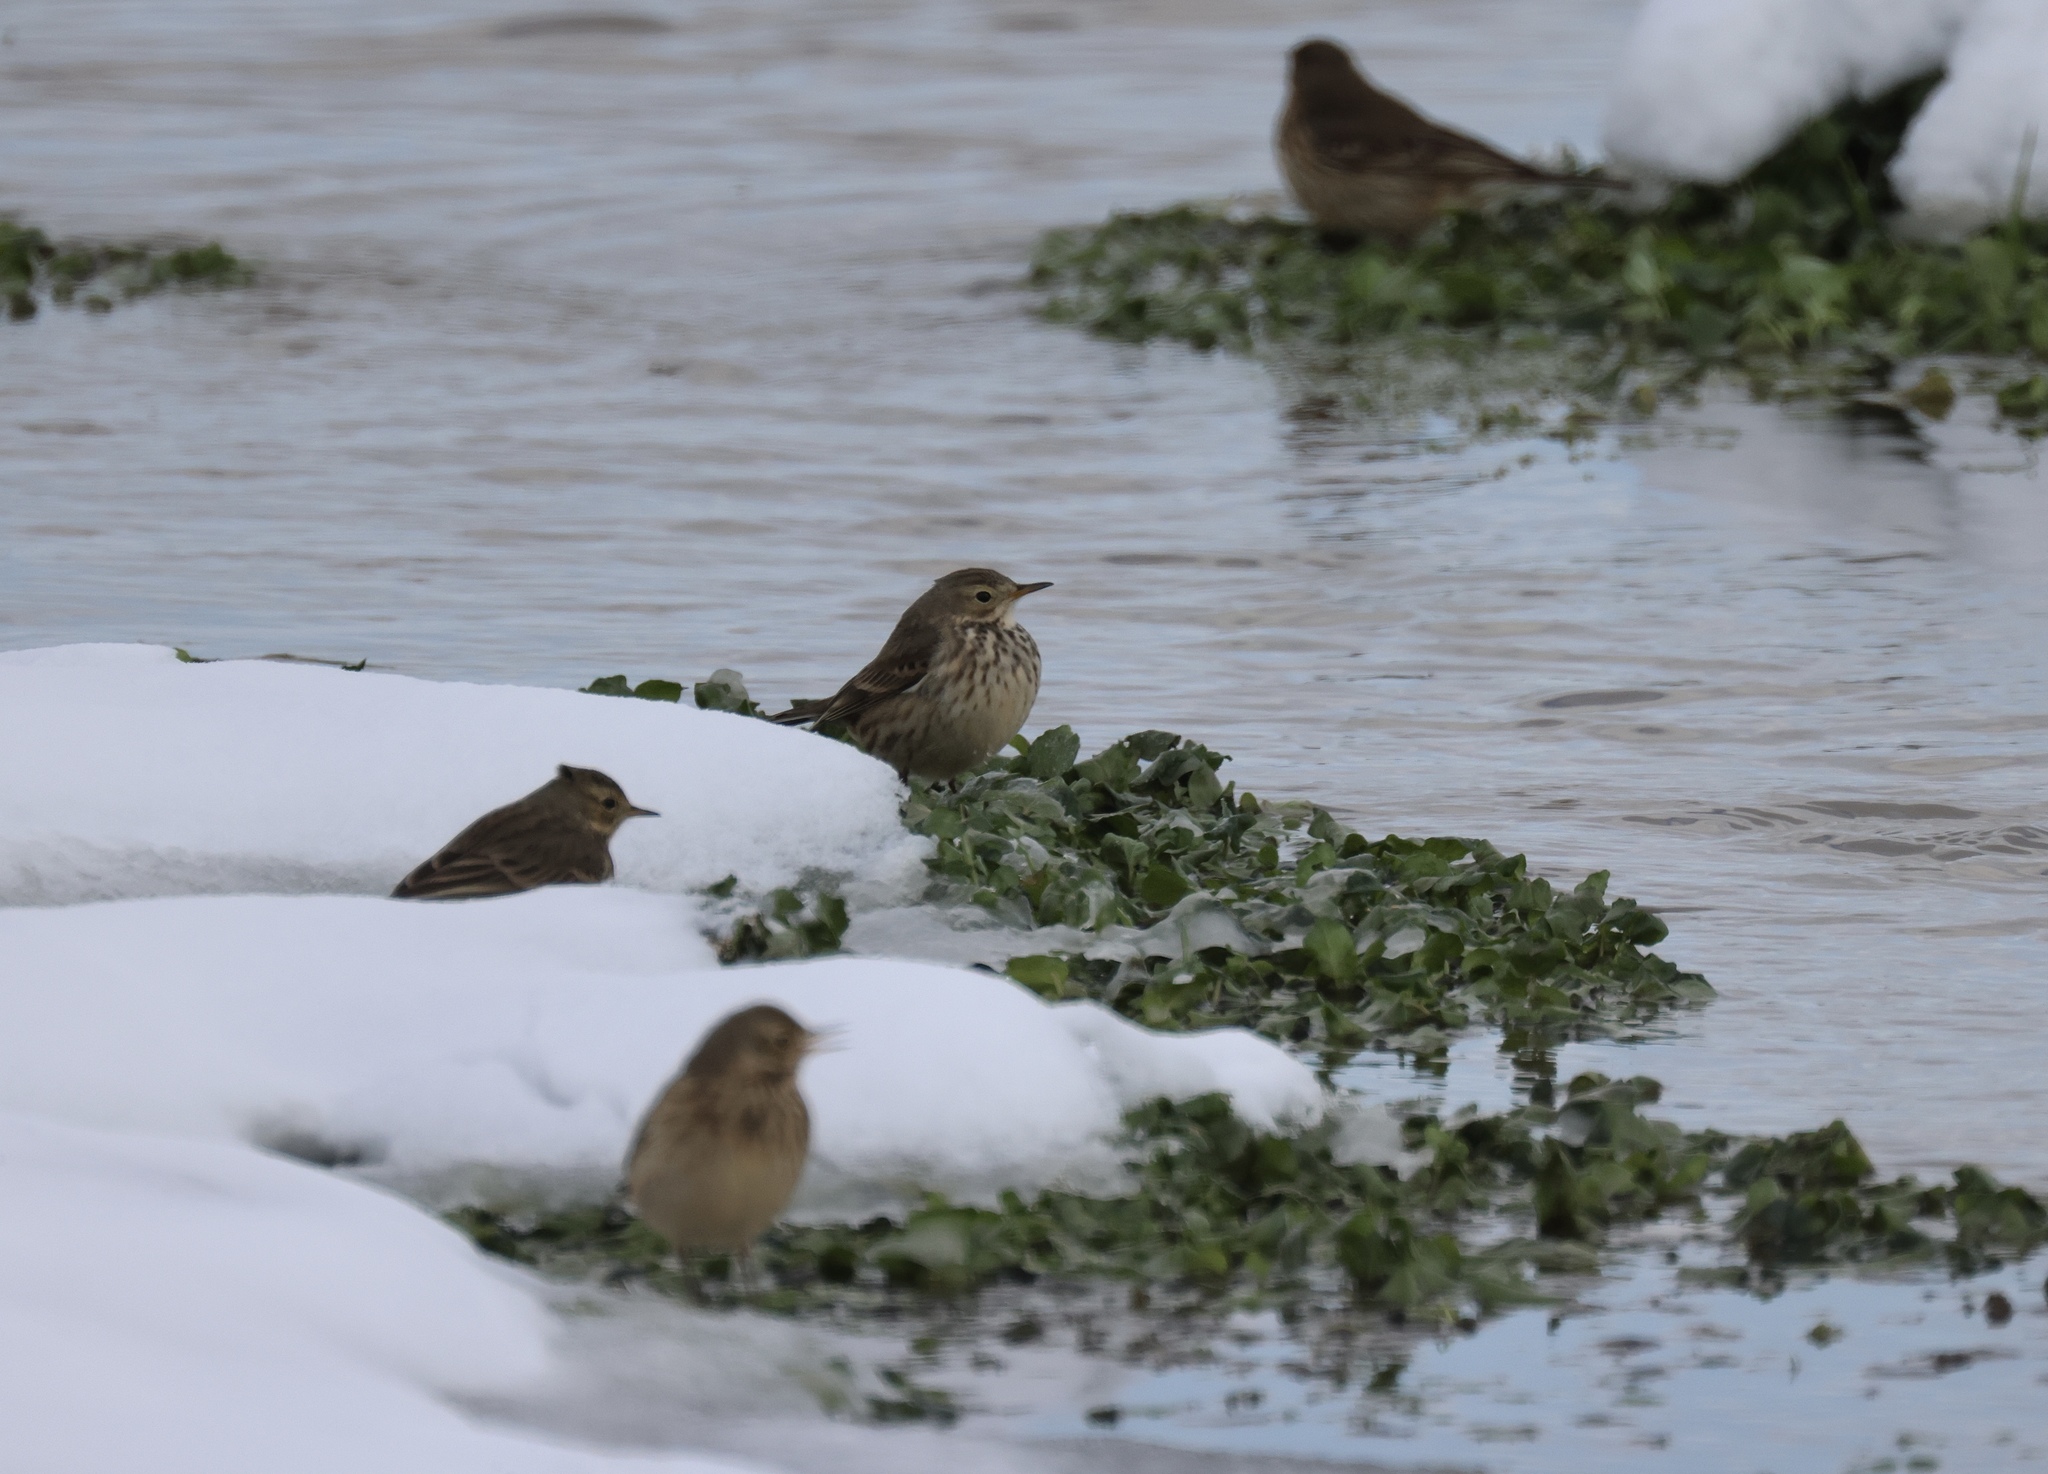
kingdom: Animalia
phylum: Chordata
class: Aves
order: Passeriformes
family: Motacillidae
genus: Anthus
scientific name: Anthus rubescens
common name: Buff-bellied pipit
